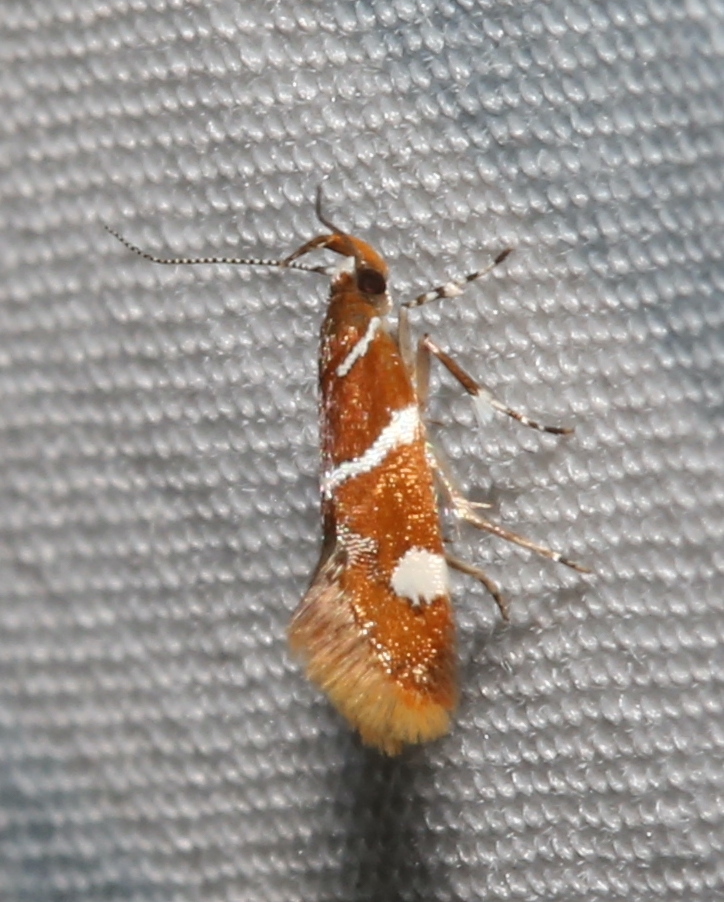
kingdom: Animalia
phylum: Arthropoda
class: Insecta
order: Lepidoptera
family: Oecophoridae
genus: Promalactis
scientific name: Promalactis suzukiella
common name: Moth
